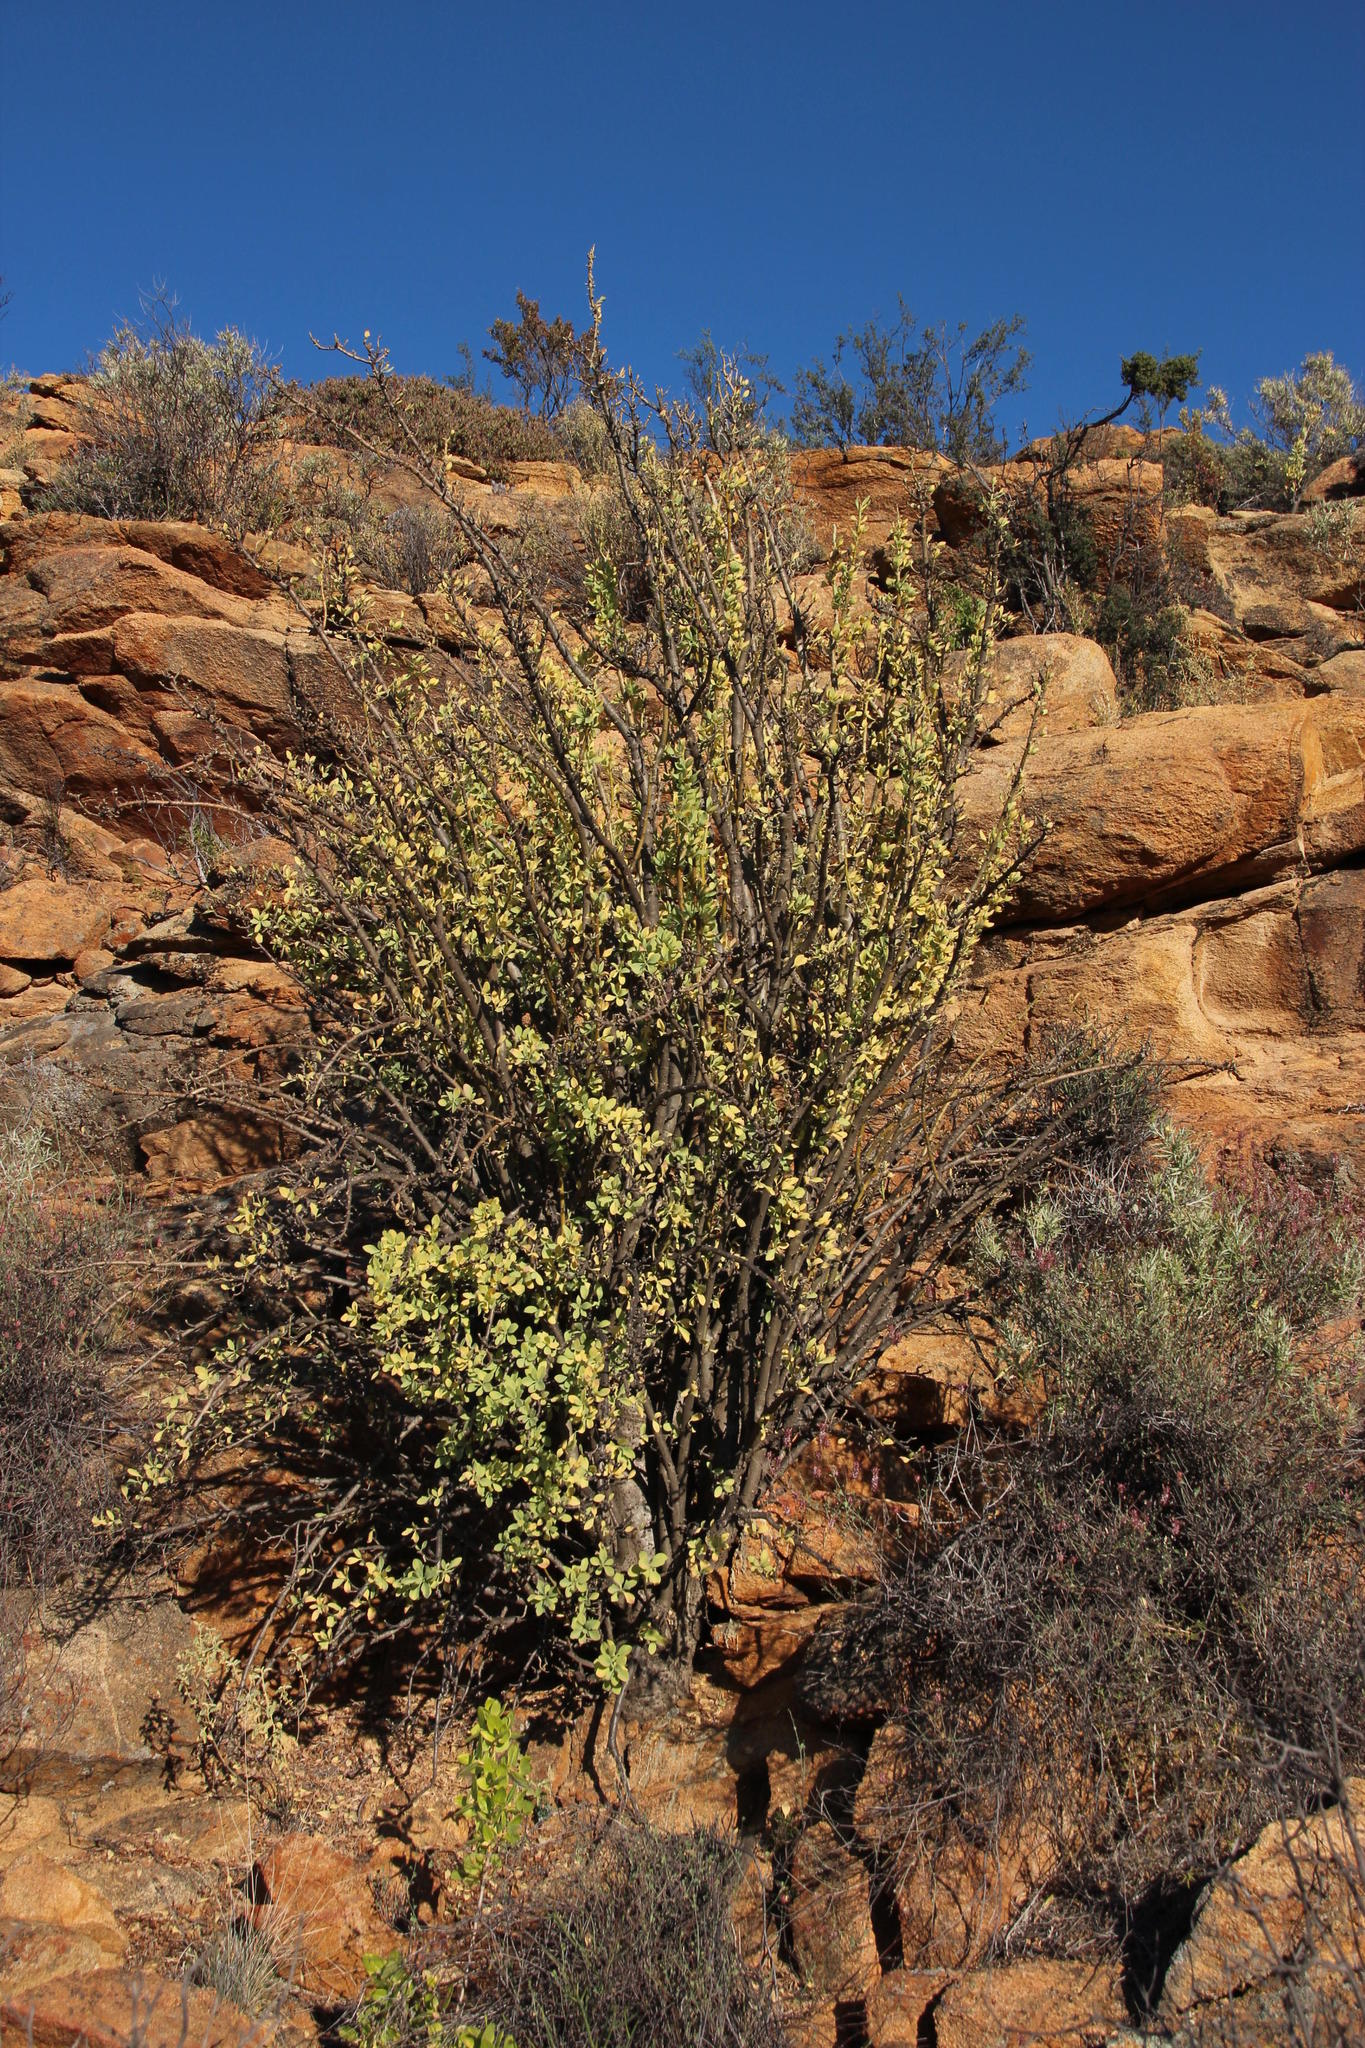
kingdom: Plantae
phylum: Tracheophyta
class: Magnoliopsida
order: Asterales
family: Asteraceae
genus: Othonna
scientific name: Othonna cerarioides
